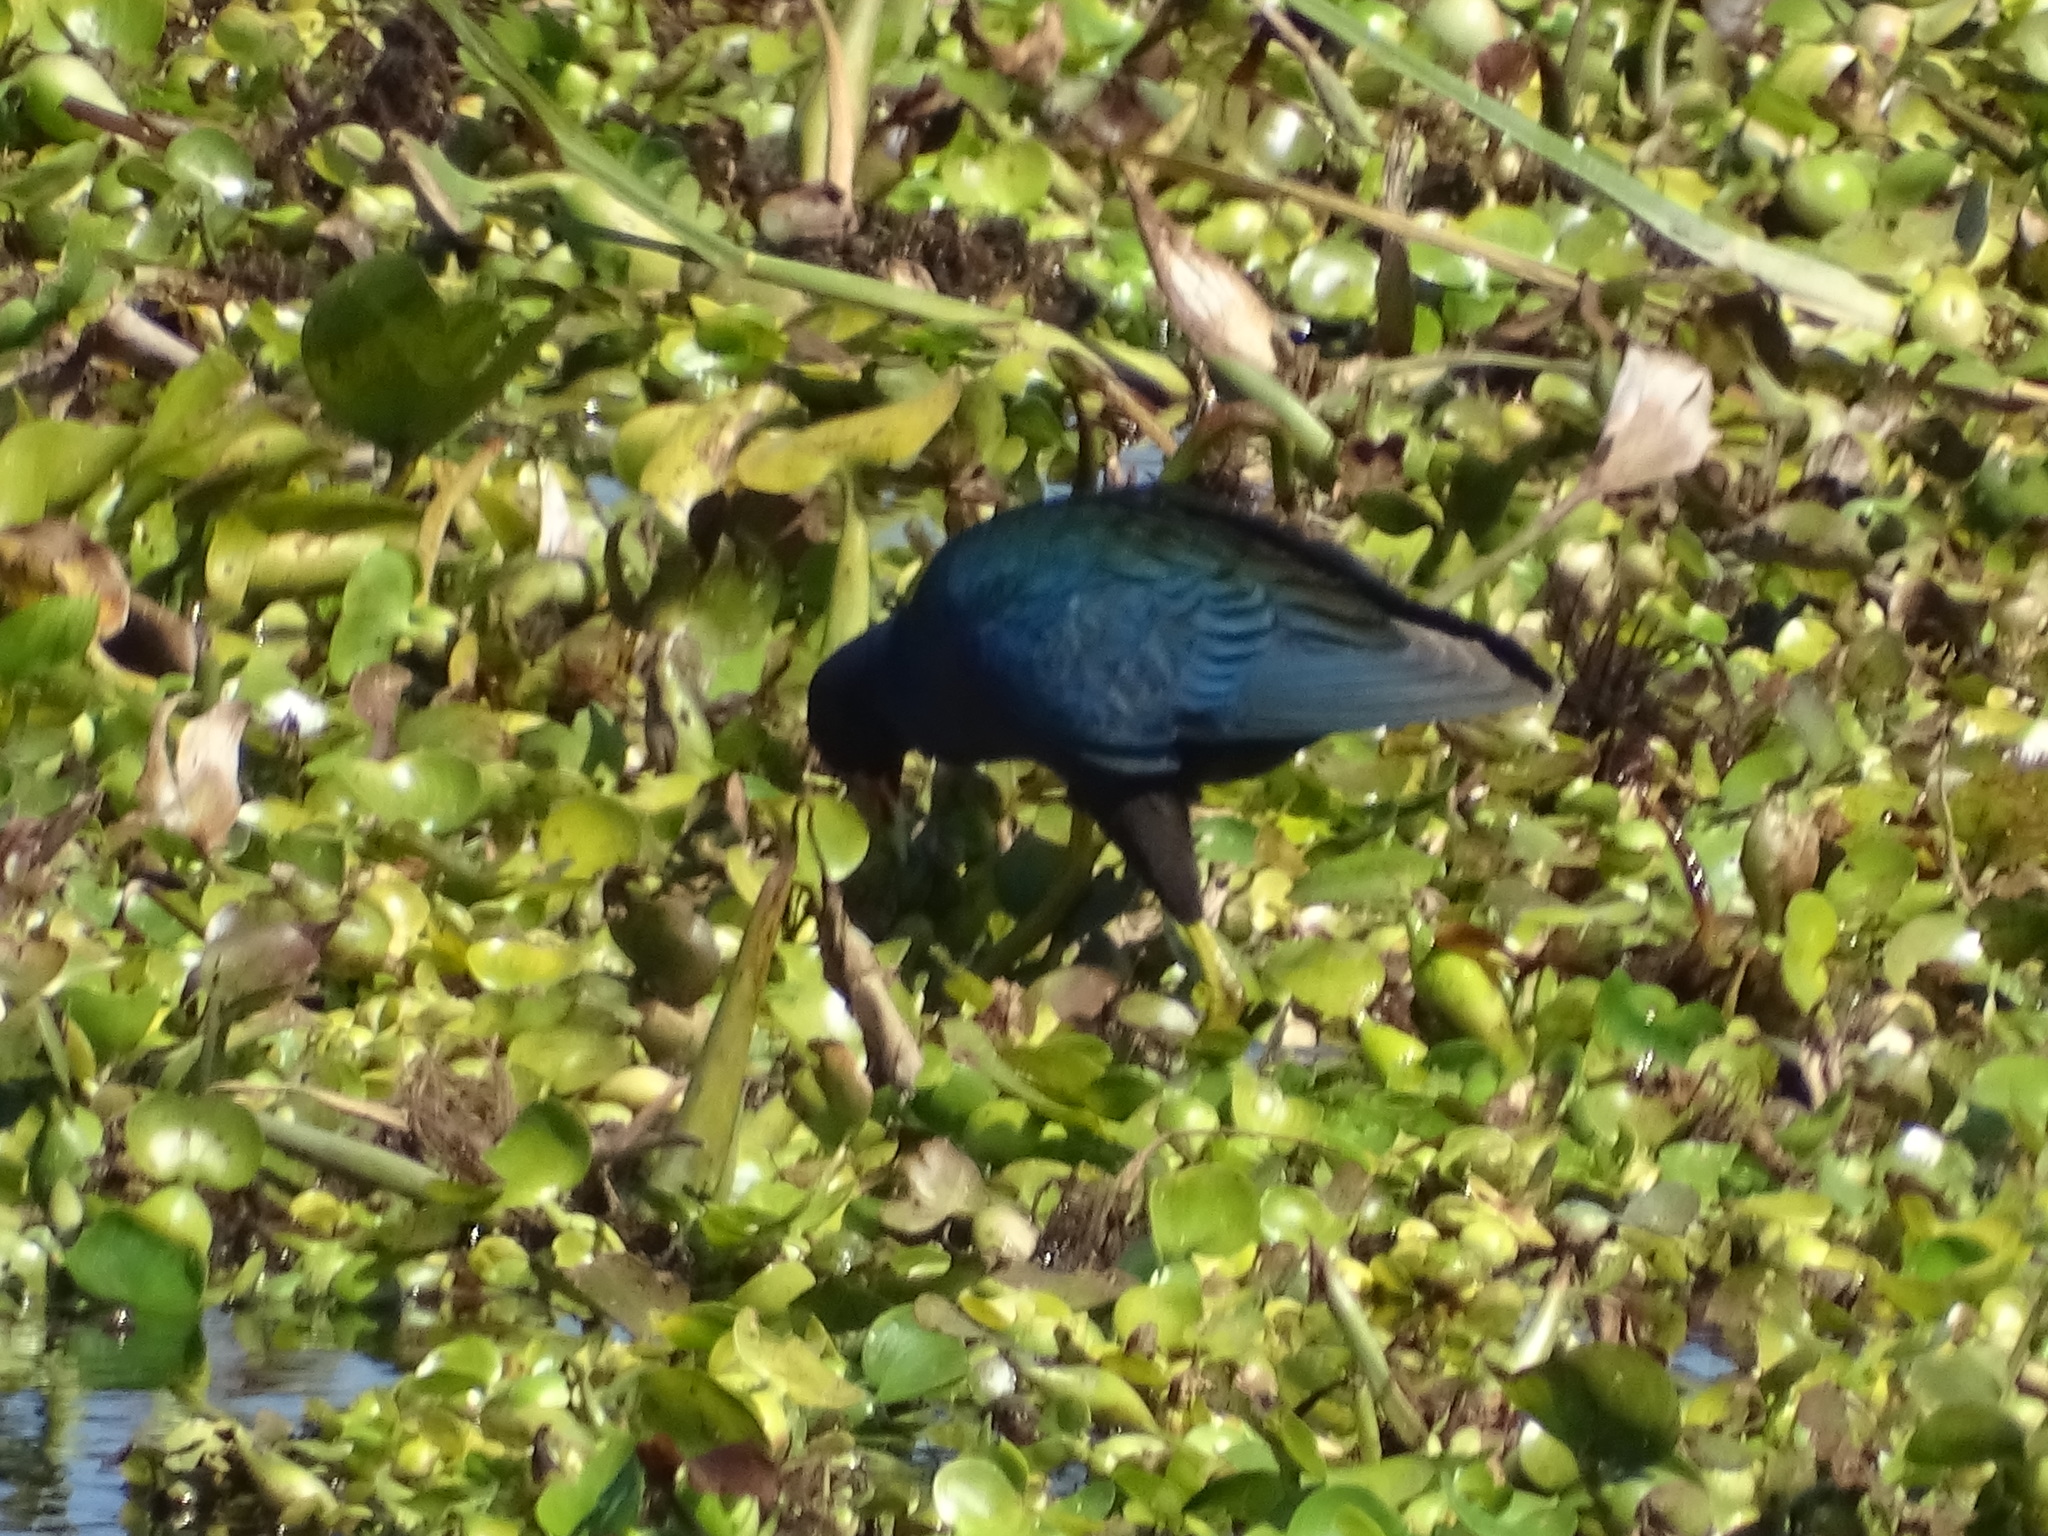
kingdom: Animalia
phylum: Chordata
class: Aves
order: Gruiformes
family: Rallidae
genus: Porphyrio
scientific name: Porphyrio martinica
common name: Purple gallinule
